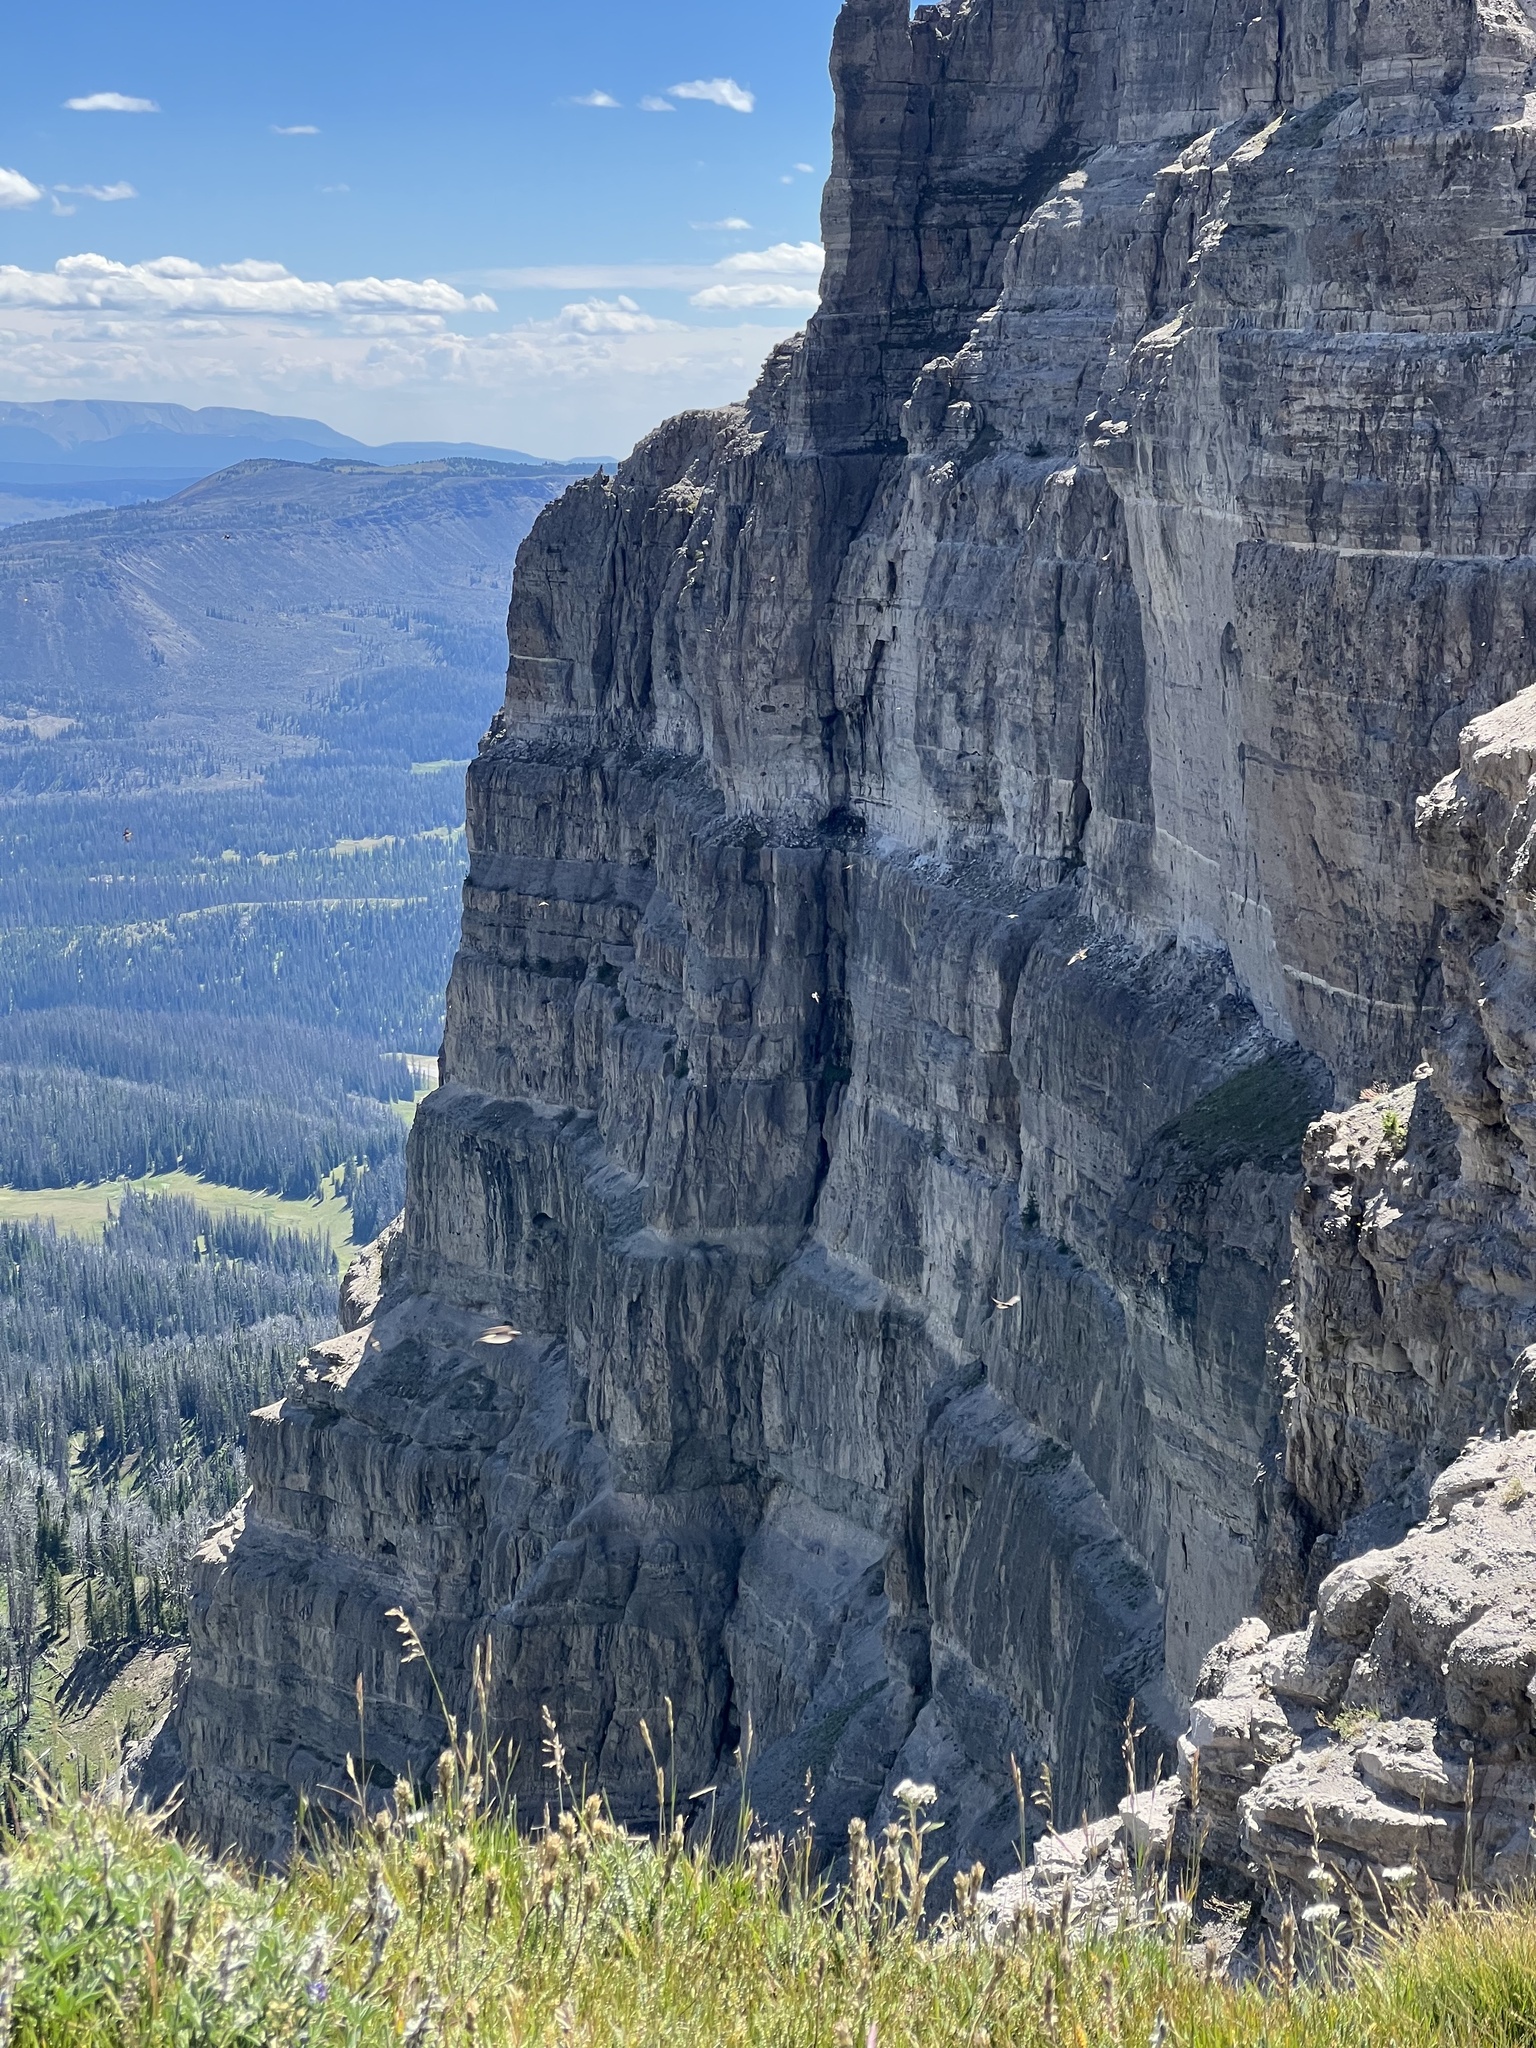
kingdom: Animalia
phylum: Chordata
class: Aves
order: Passeriformes
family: Hirundinidae
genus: Petrochelidon
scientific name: Petrochelidon pyrrhonota
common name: American cliff swallow
